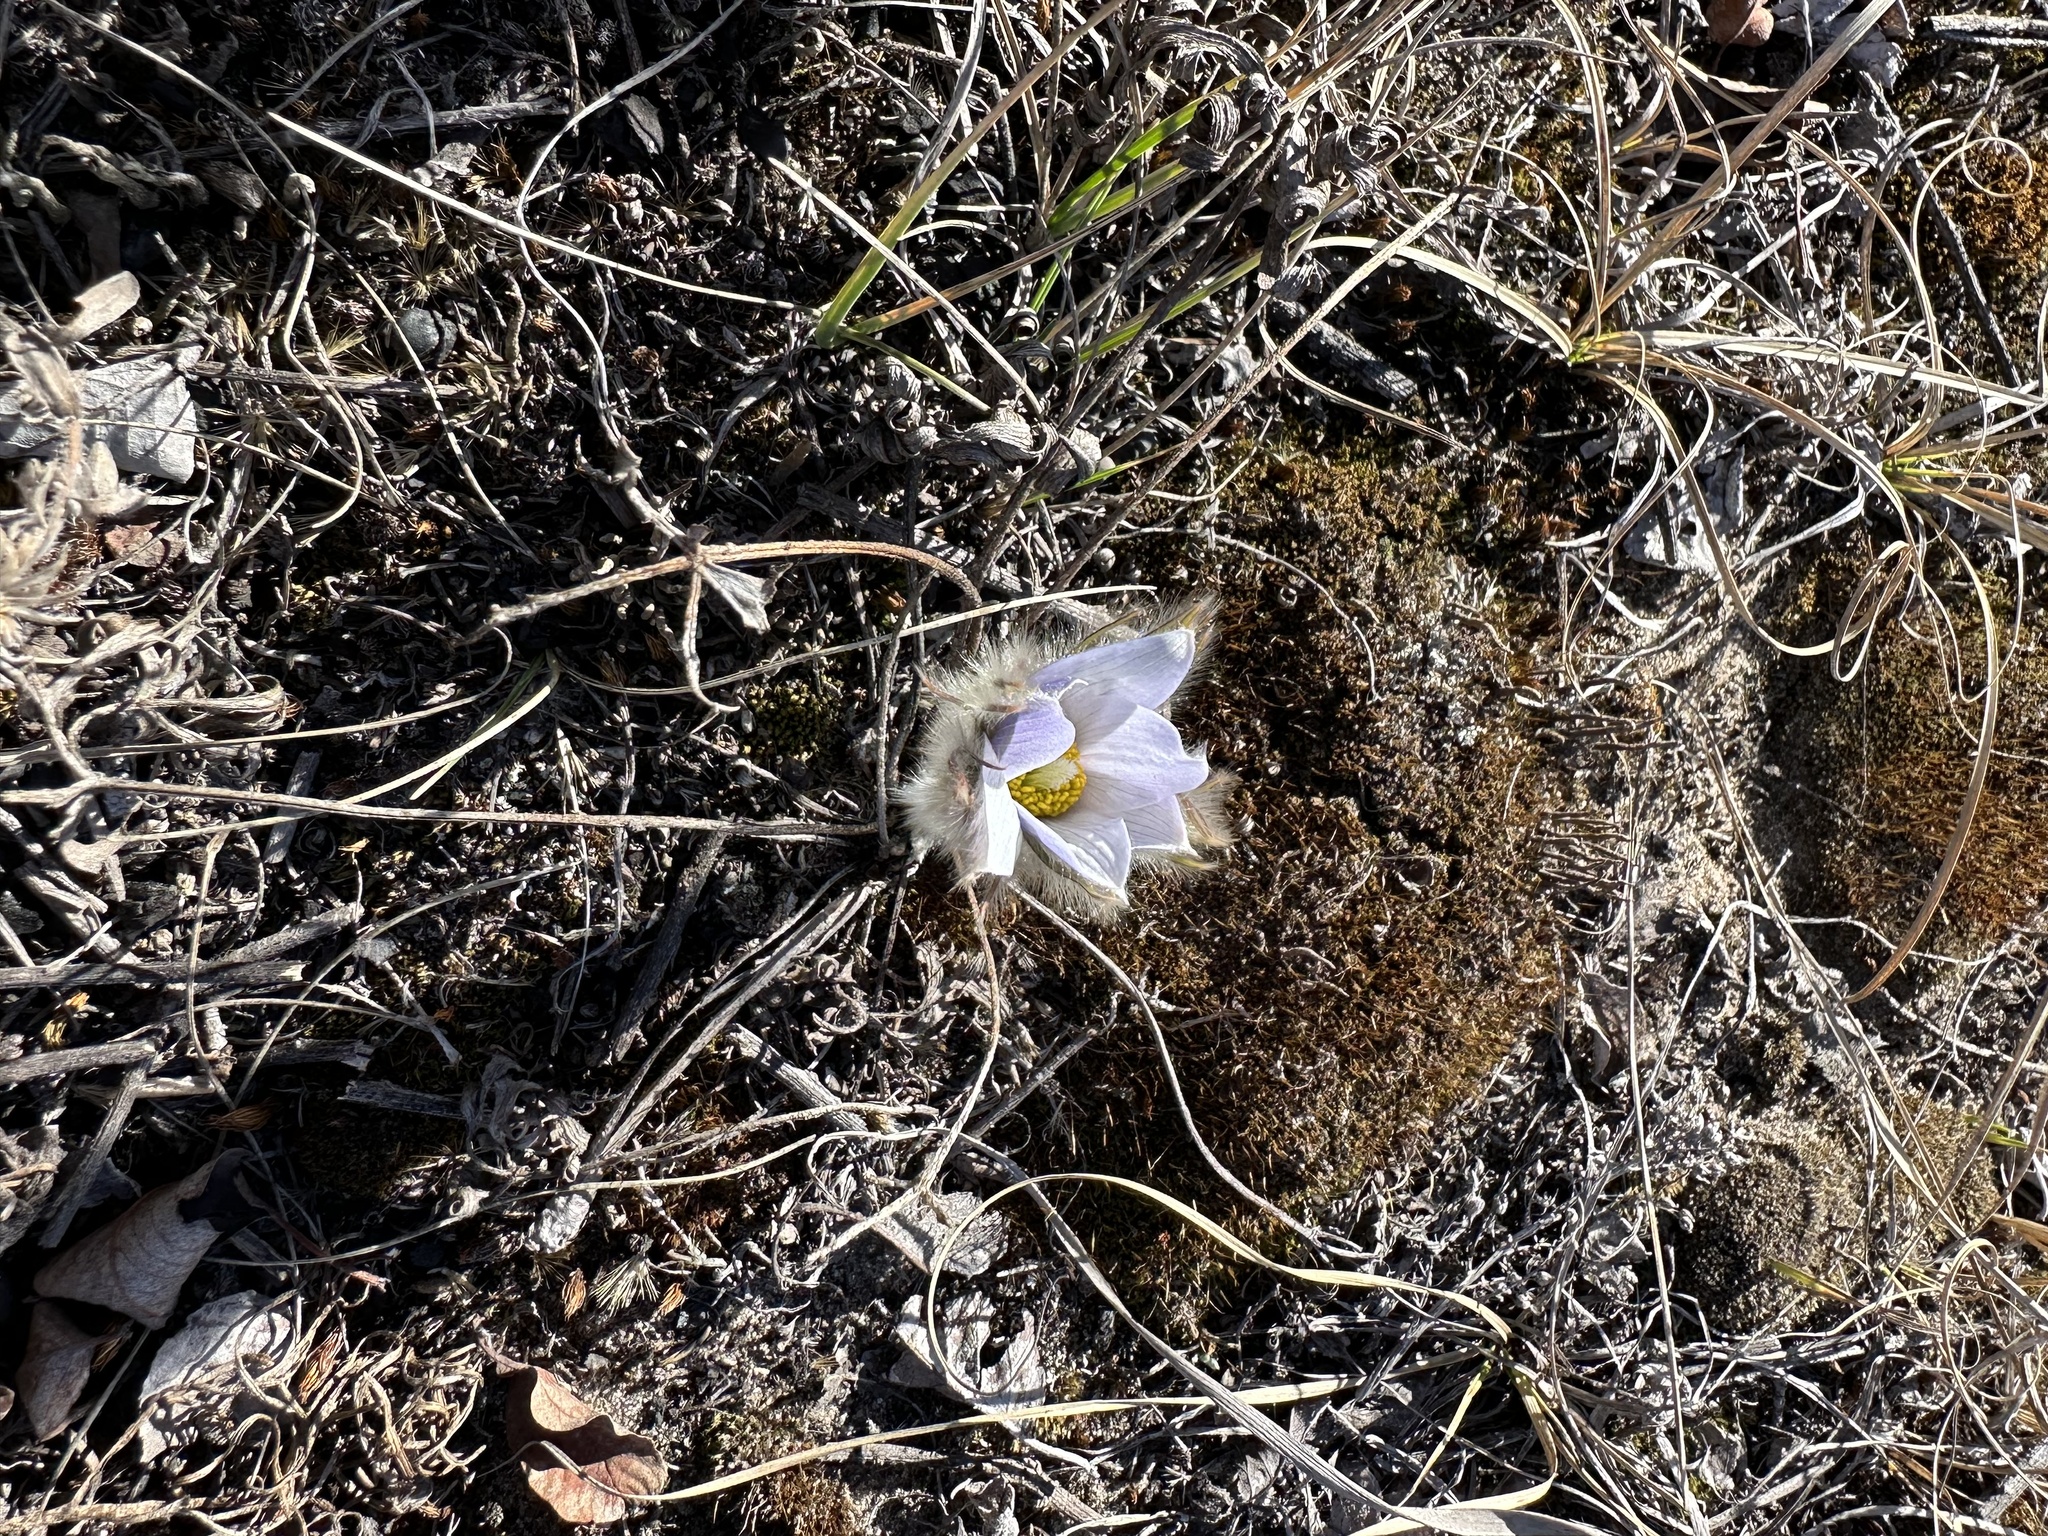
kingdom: Plantae
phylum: Tracheophyta
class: Magnoliopsida
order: Ranunculales
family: Ranunculaceae
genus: Pulsatilla
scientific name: Pulsatilla nuttalliana
